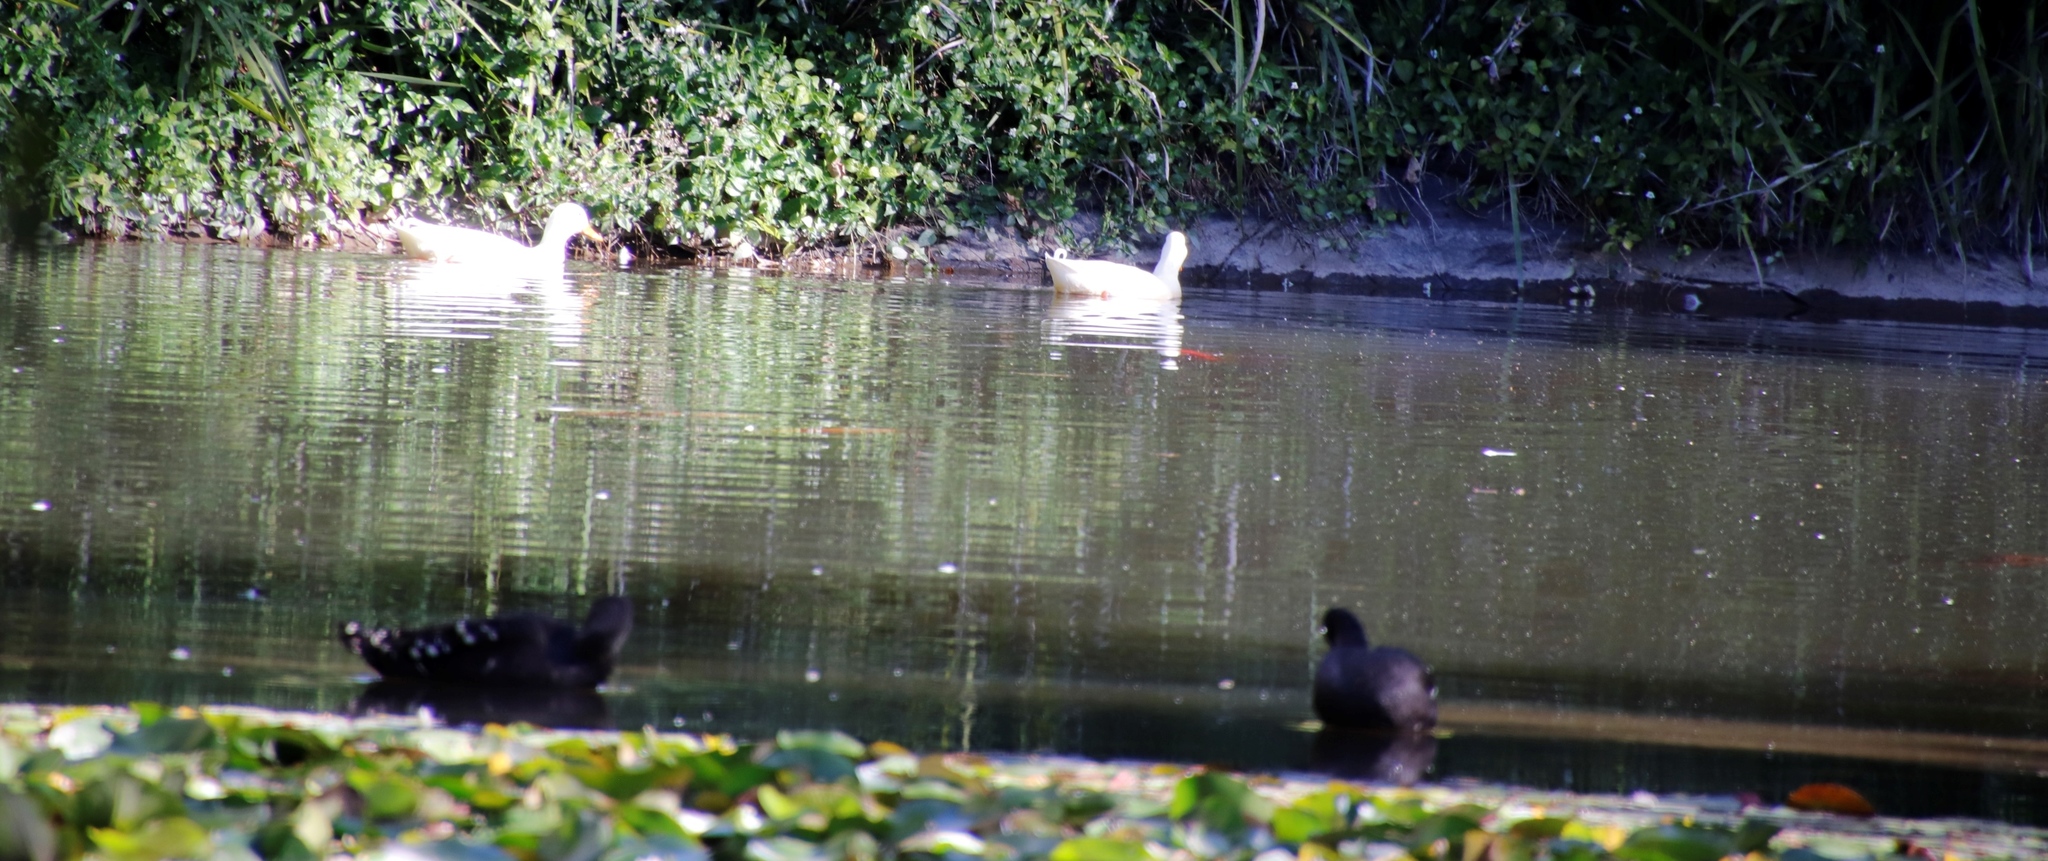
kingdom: Animalia
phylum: Chordata
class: Aves
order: Anseriformes
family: Anatidae
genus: Anas
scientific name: Anas platyrhynchos
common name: Mallard
